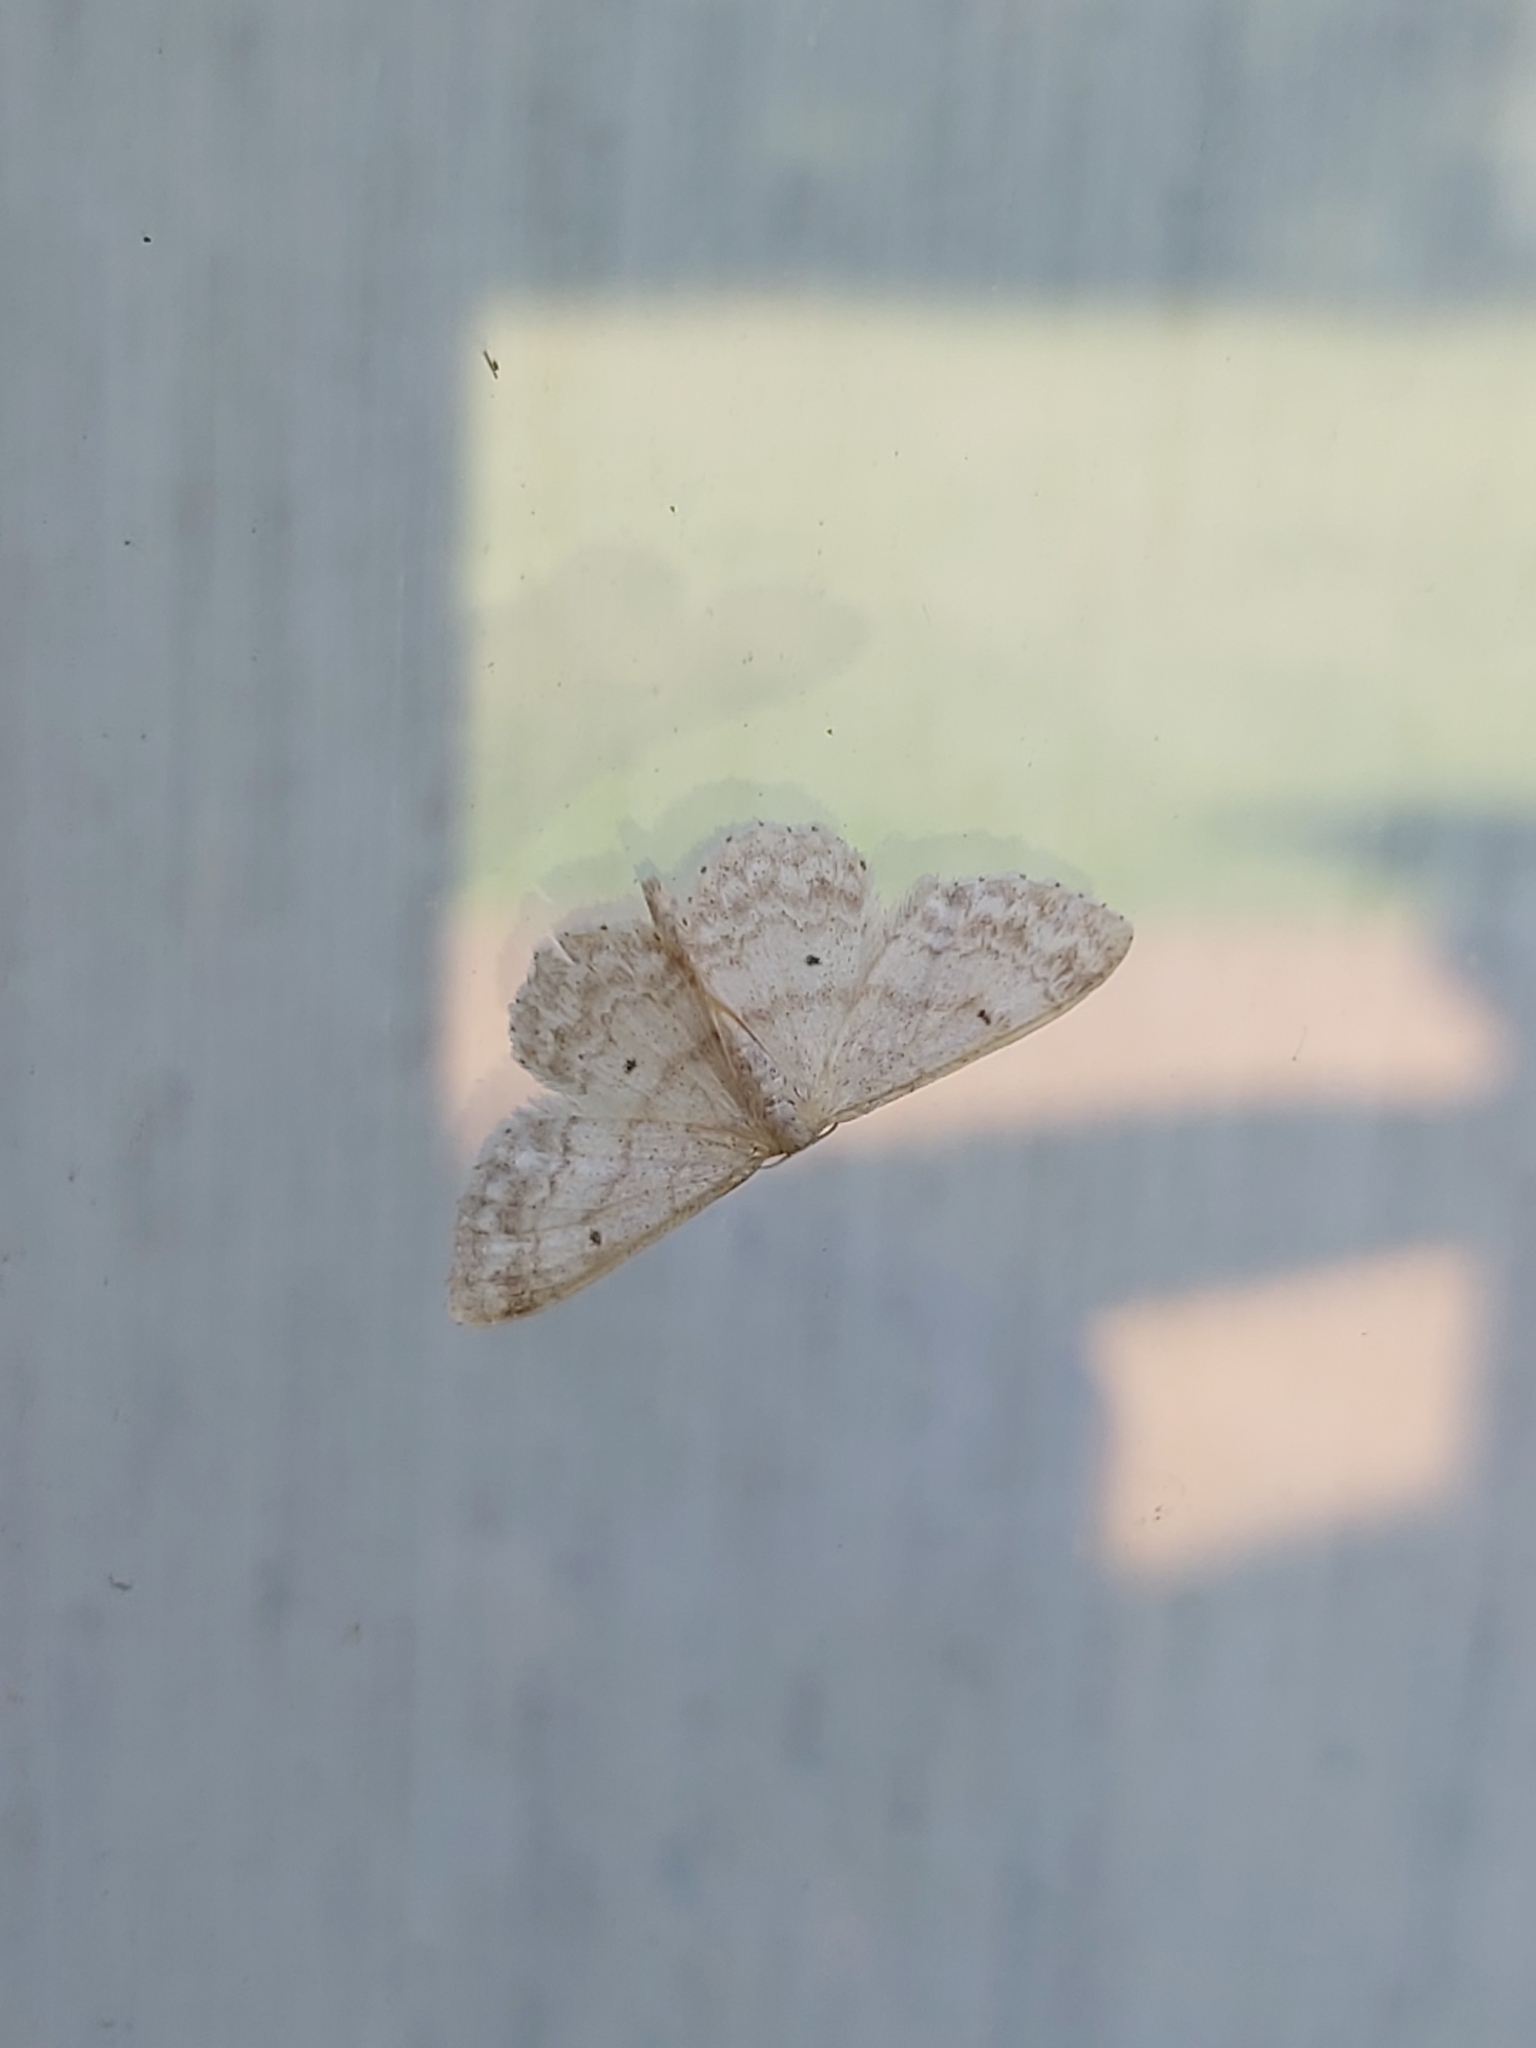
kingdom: Animalia
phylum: Arthropoda
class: Insecta
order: Lepidoptera
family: Geometridae
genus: Idaea
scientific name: Idaea biselata
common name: Small fan-footed wave
